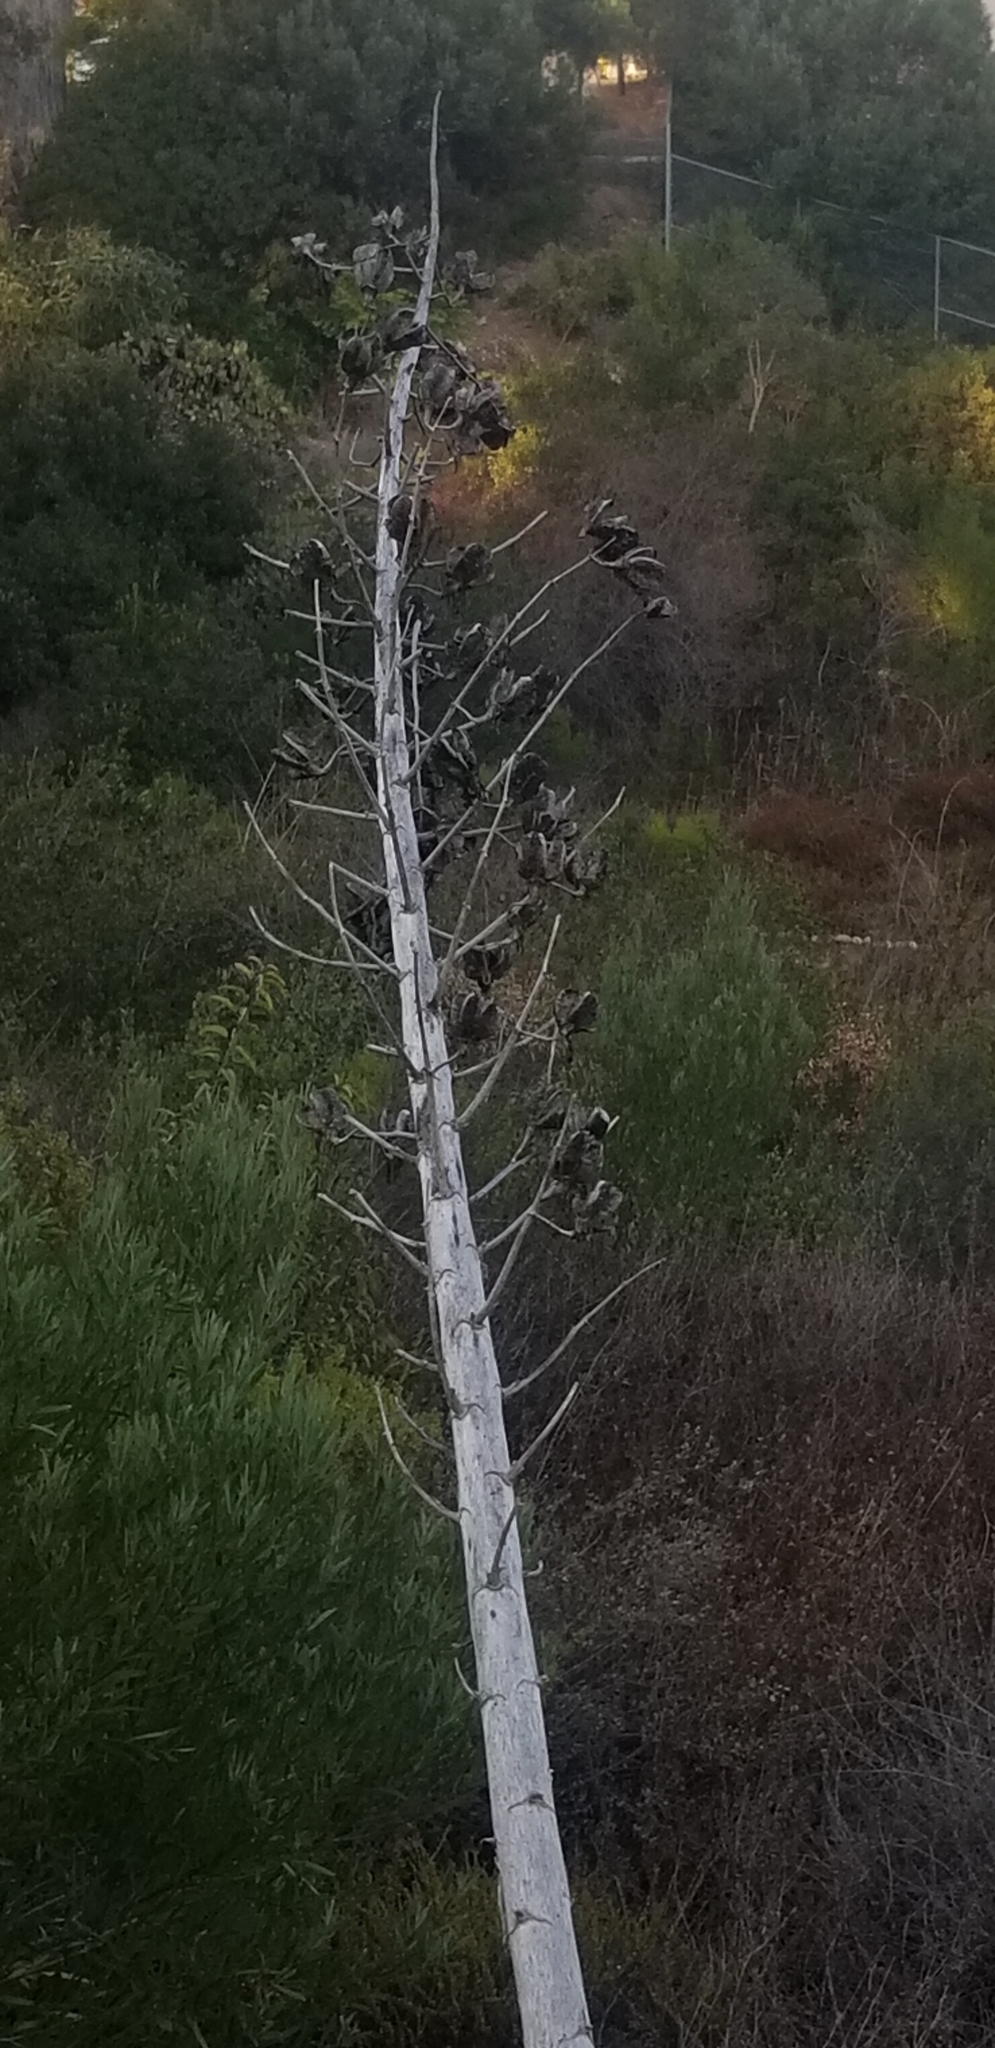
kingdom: Plantae
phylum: Tracheophyta
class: Liliopsida
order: Asparagales
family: Asparagaceae
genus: Hesperoyucca
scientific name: Hesperoyucca whipplei
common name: Our lord's-candle
